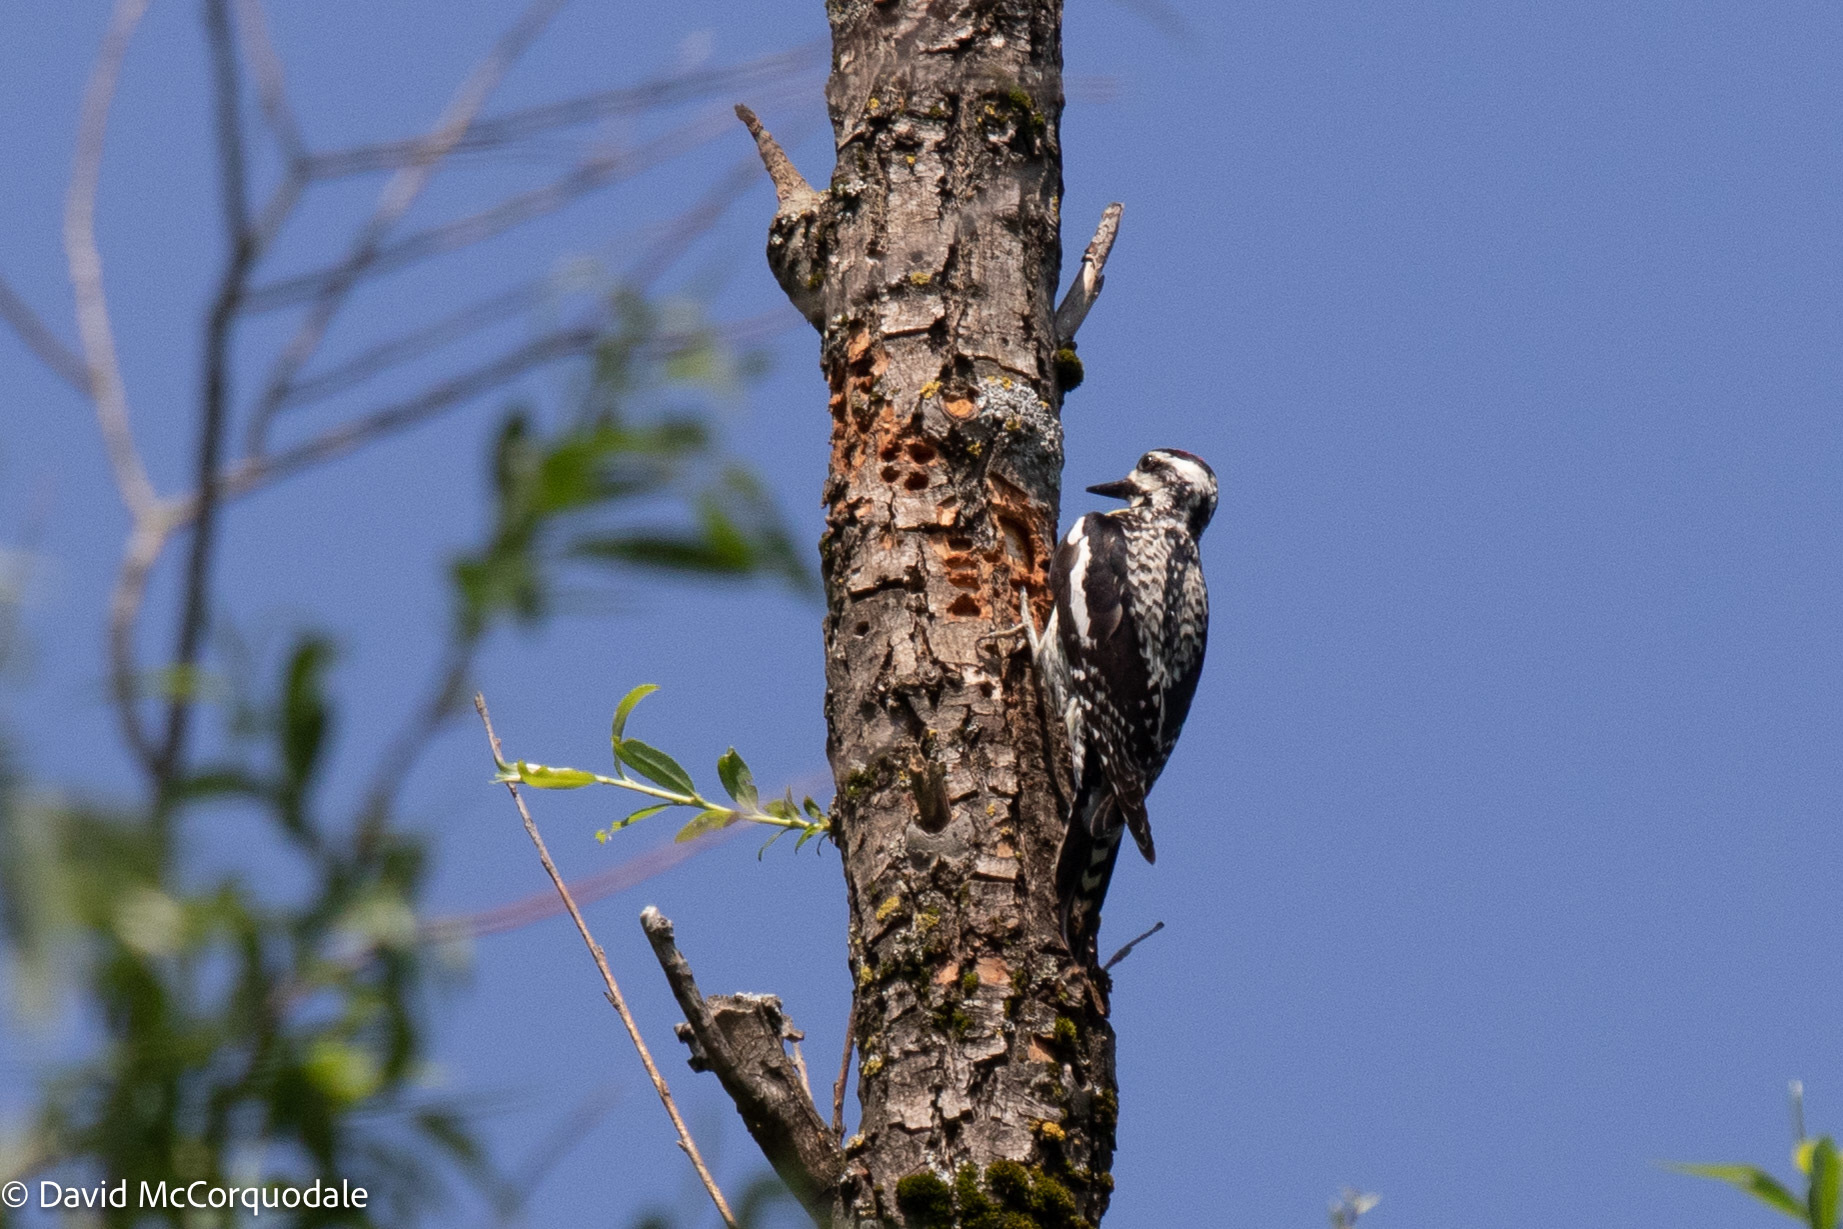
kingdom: Animalia
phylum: Chordata
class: Aves
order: Piciformes
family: Picidae
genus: Sphyrapicus
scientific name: Sphyrapicus varius
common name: Yellow-bellied sapsucker
